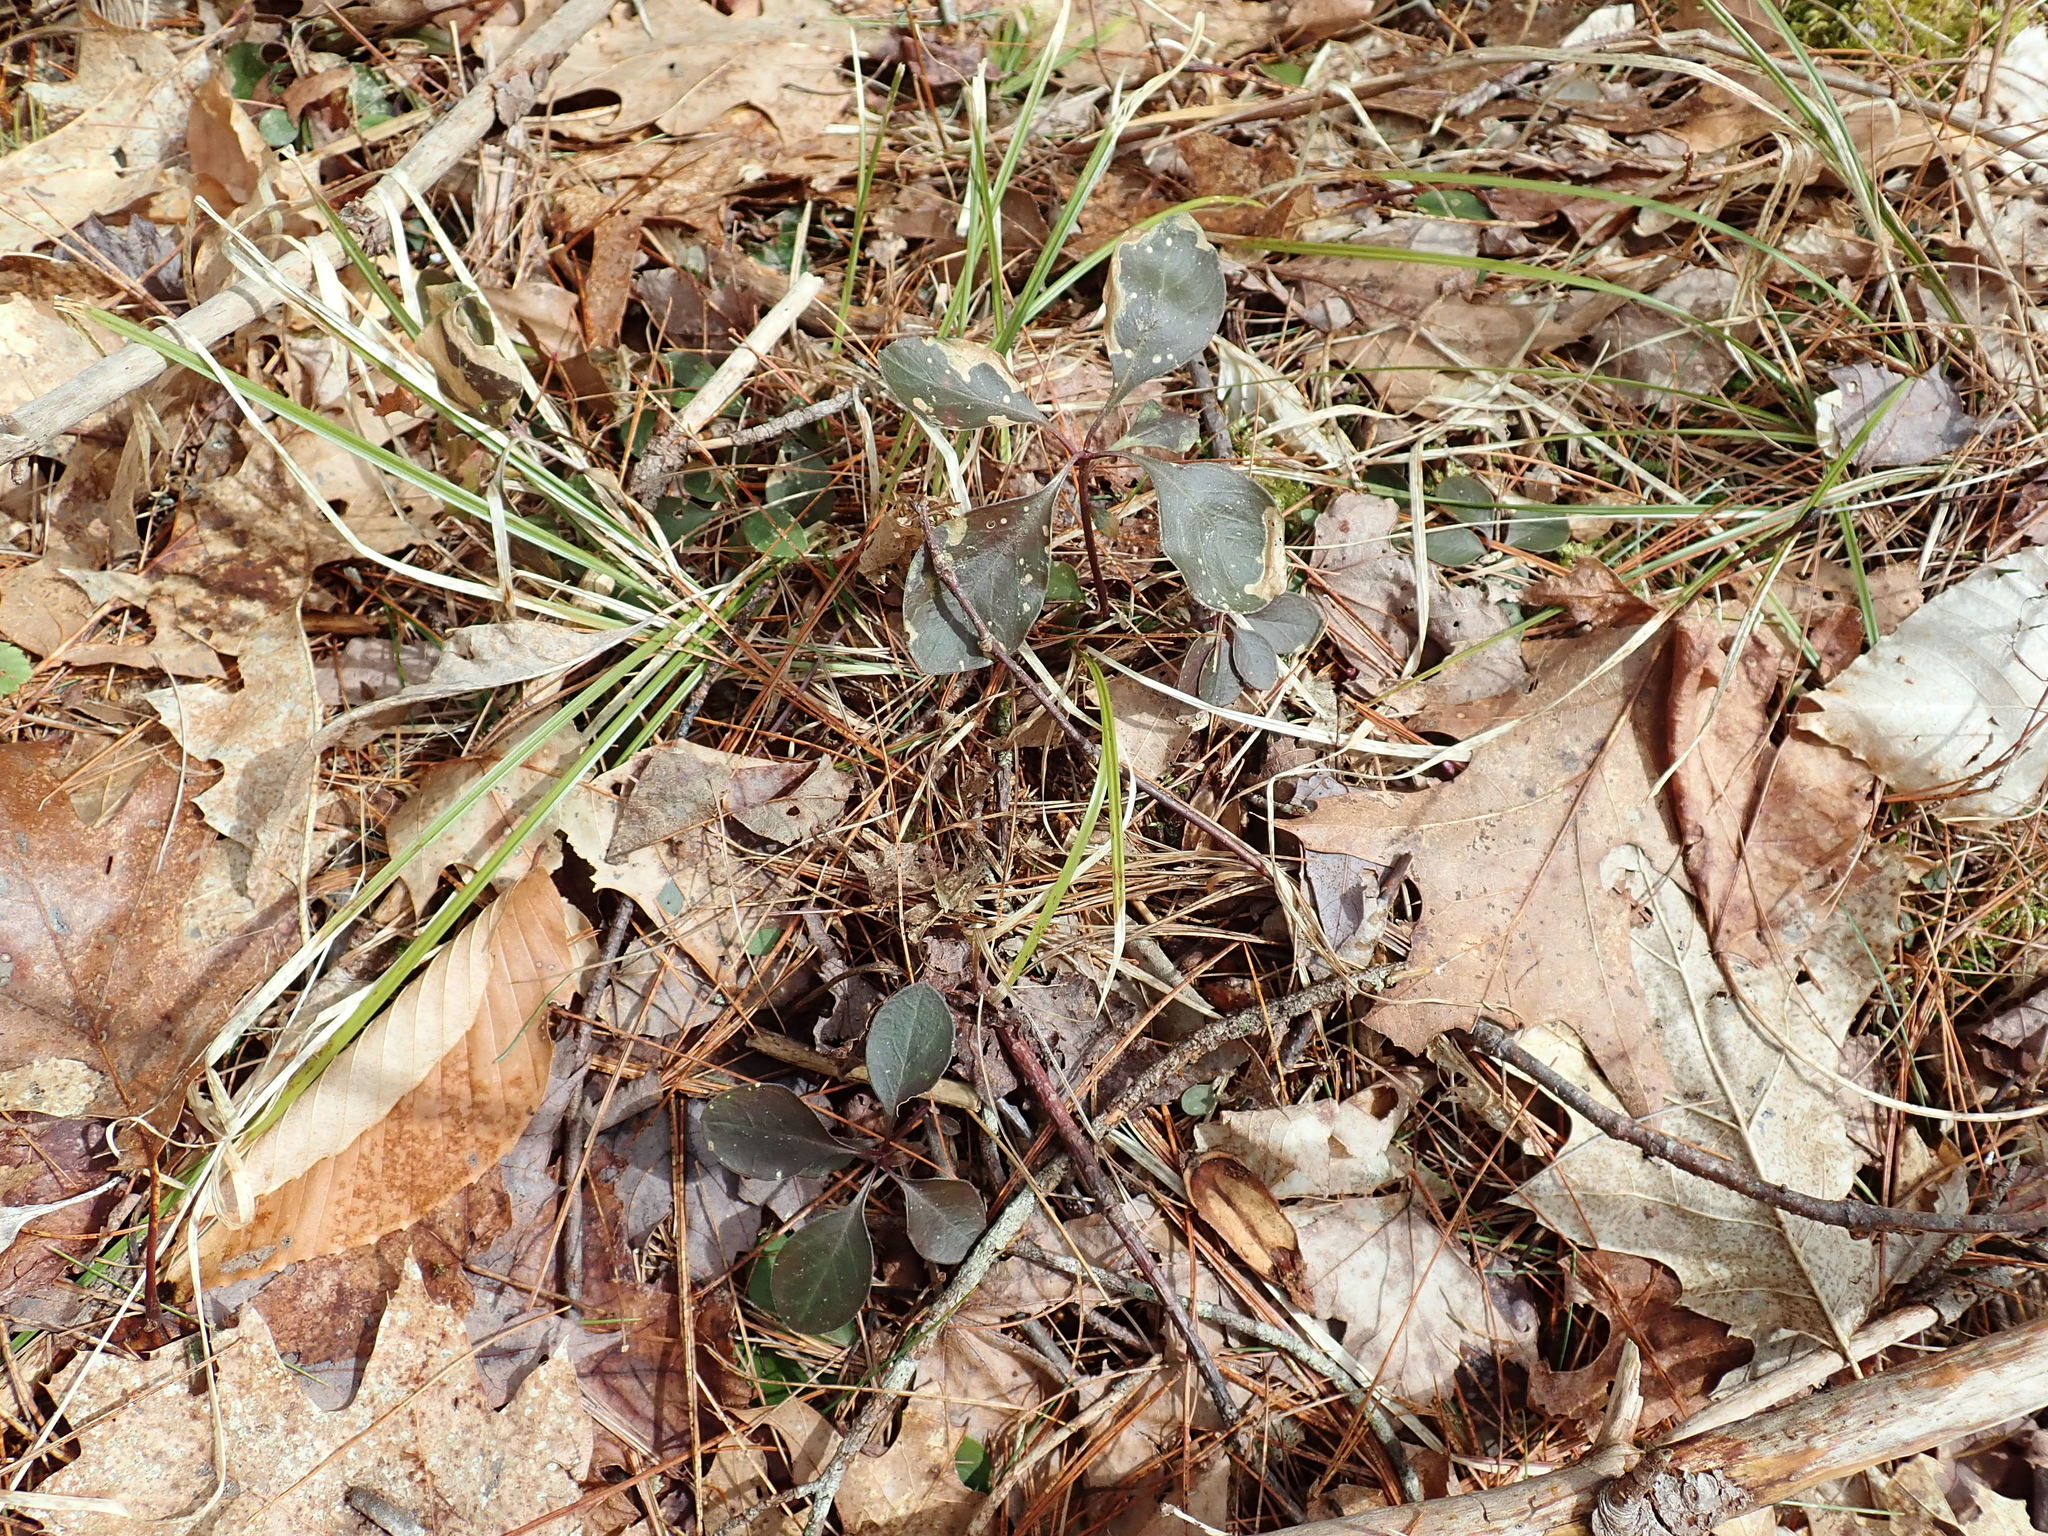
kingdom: Plantae
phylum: Tracheophyta
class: Magnoliopsida
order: Fabales
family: Polygalaceae
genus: Polygaloides
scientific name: Polygaloides paucifolia
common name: Bird-on-the-wing
